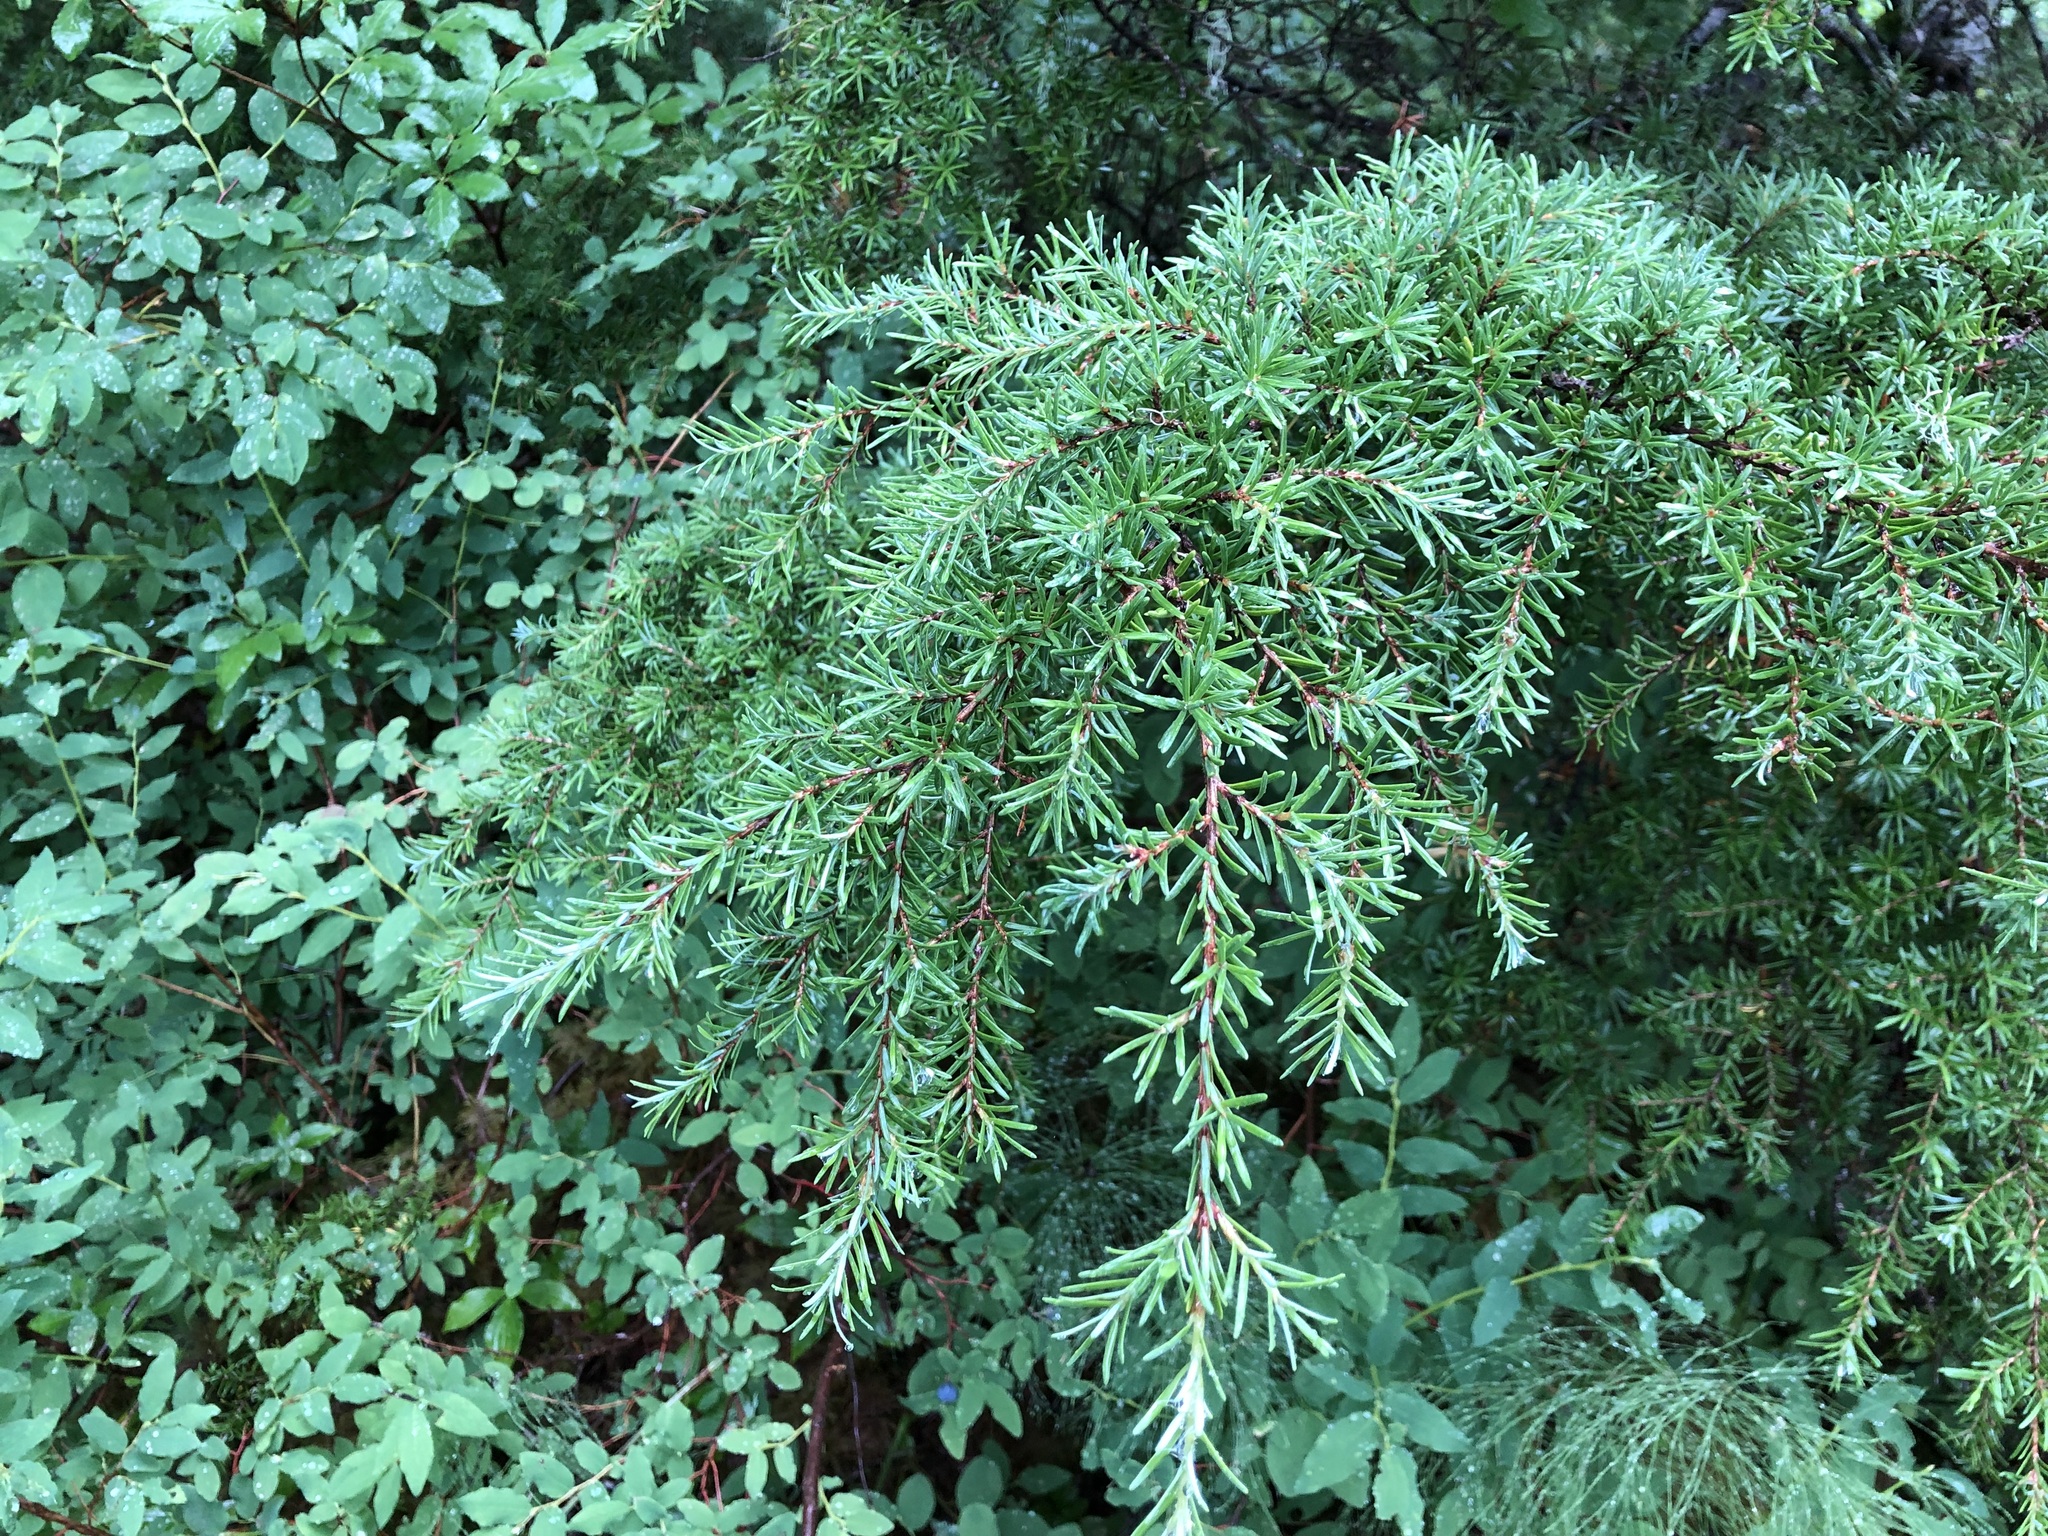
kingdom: Plantae
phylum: Tracheophyta
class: Pinopsida
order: Pinales
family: Pinaceae
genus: Tsuga
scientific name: Tsuga mertensiana
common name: Mountain hemlock
